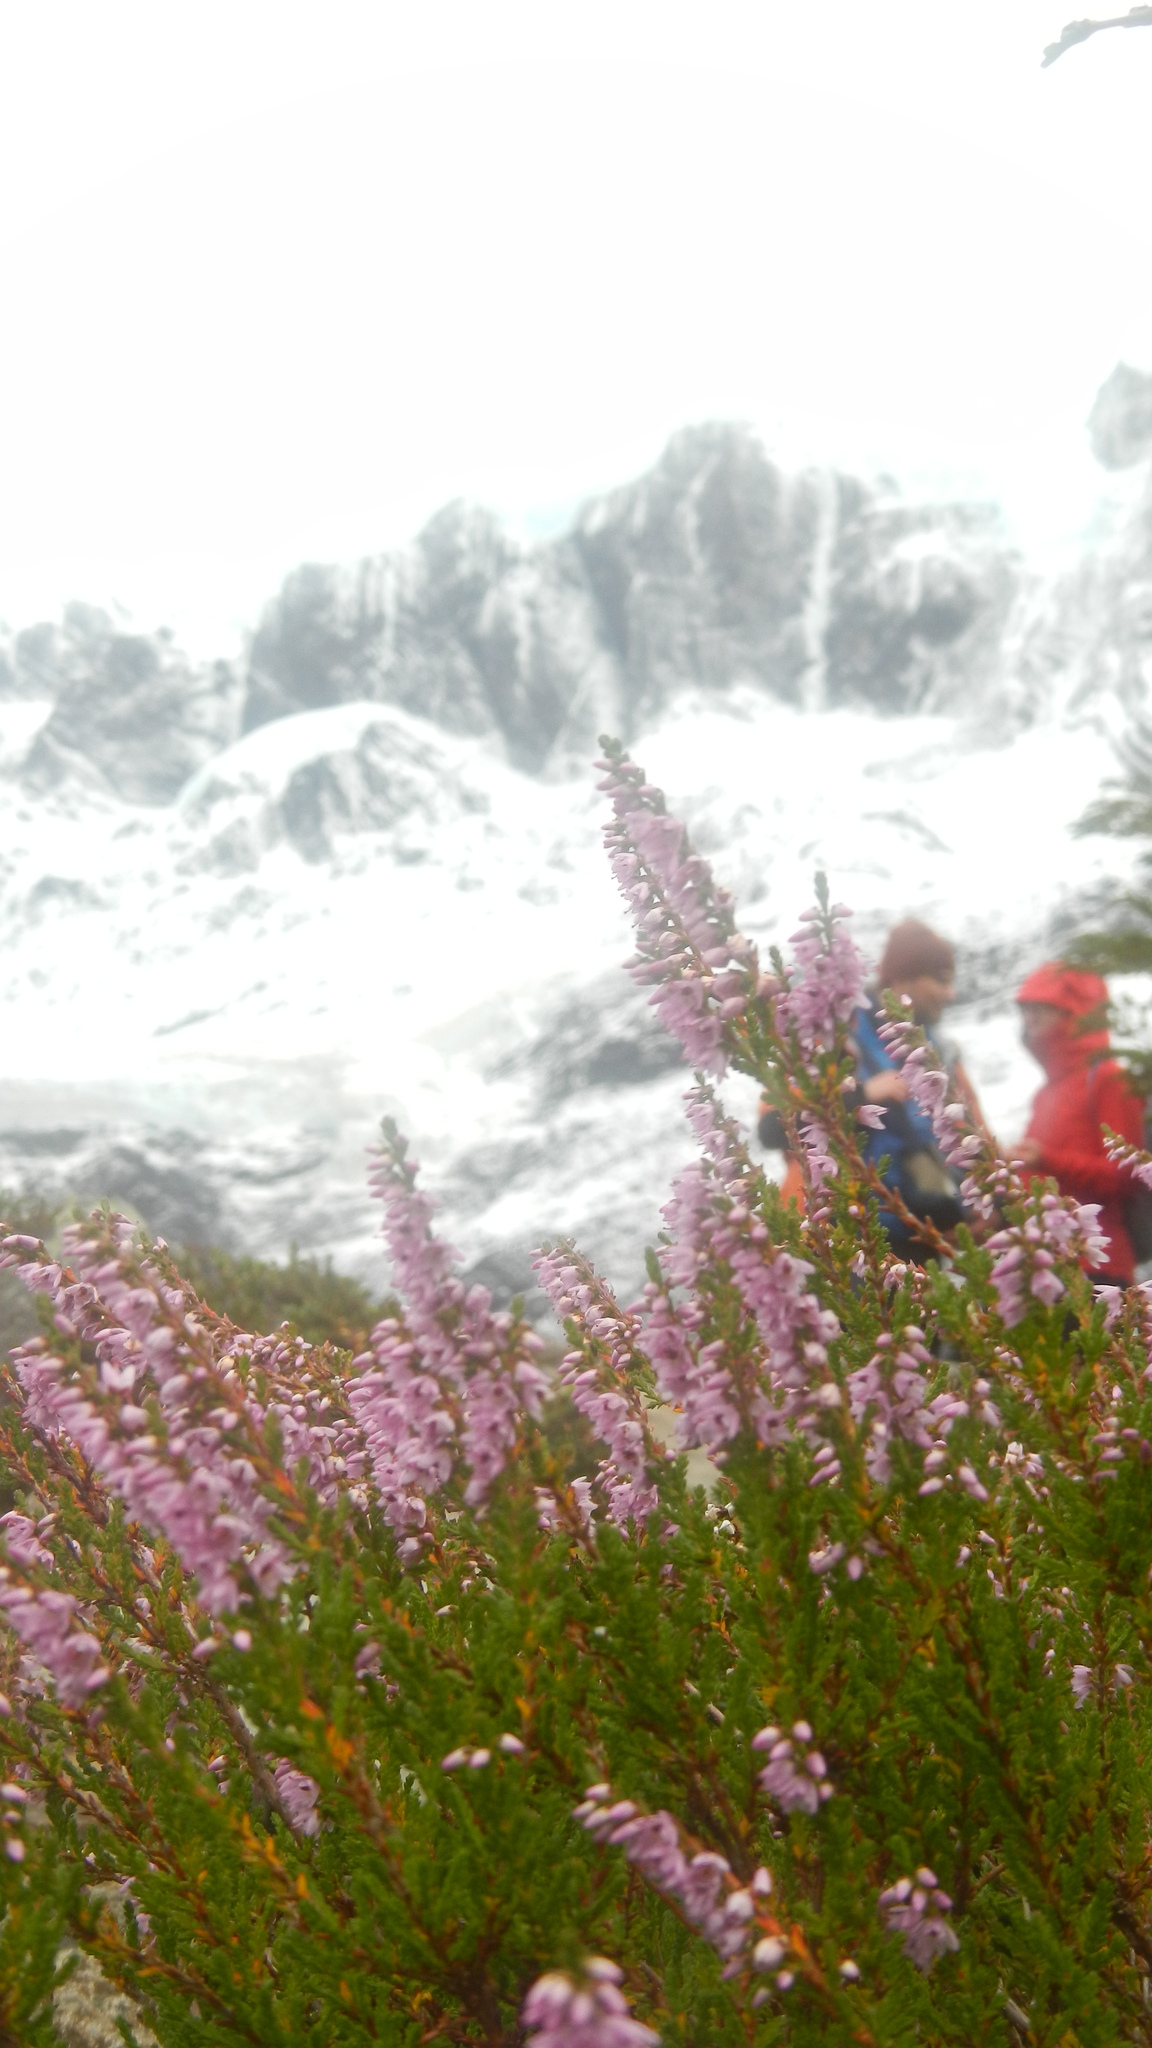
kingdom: Plantae
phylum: Tracheophyta
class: Magnoliopsida
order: Ericales
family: Ericaceae
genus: Calluna
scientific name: Calluna vulgaris
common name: Heather
